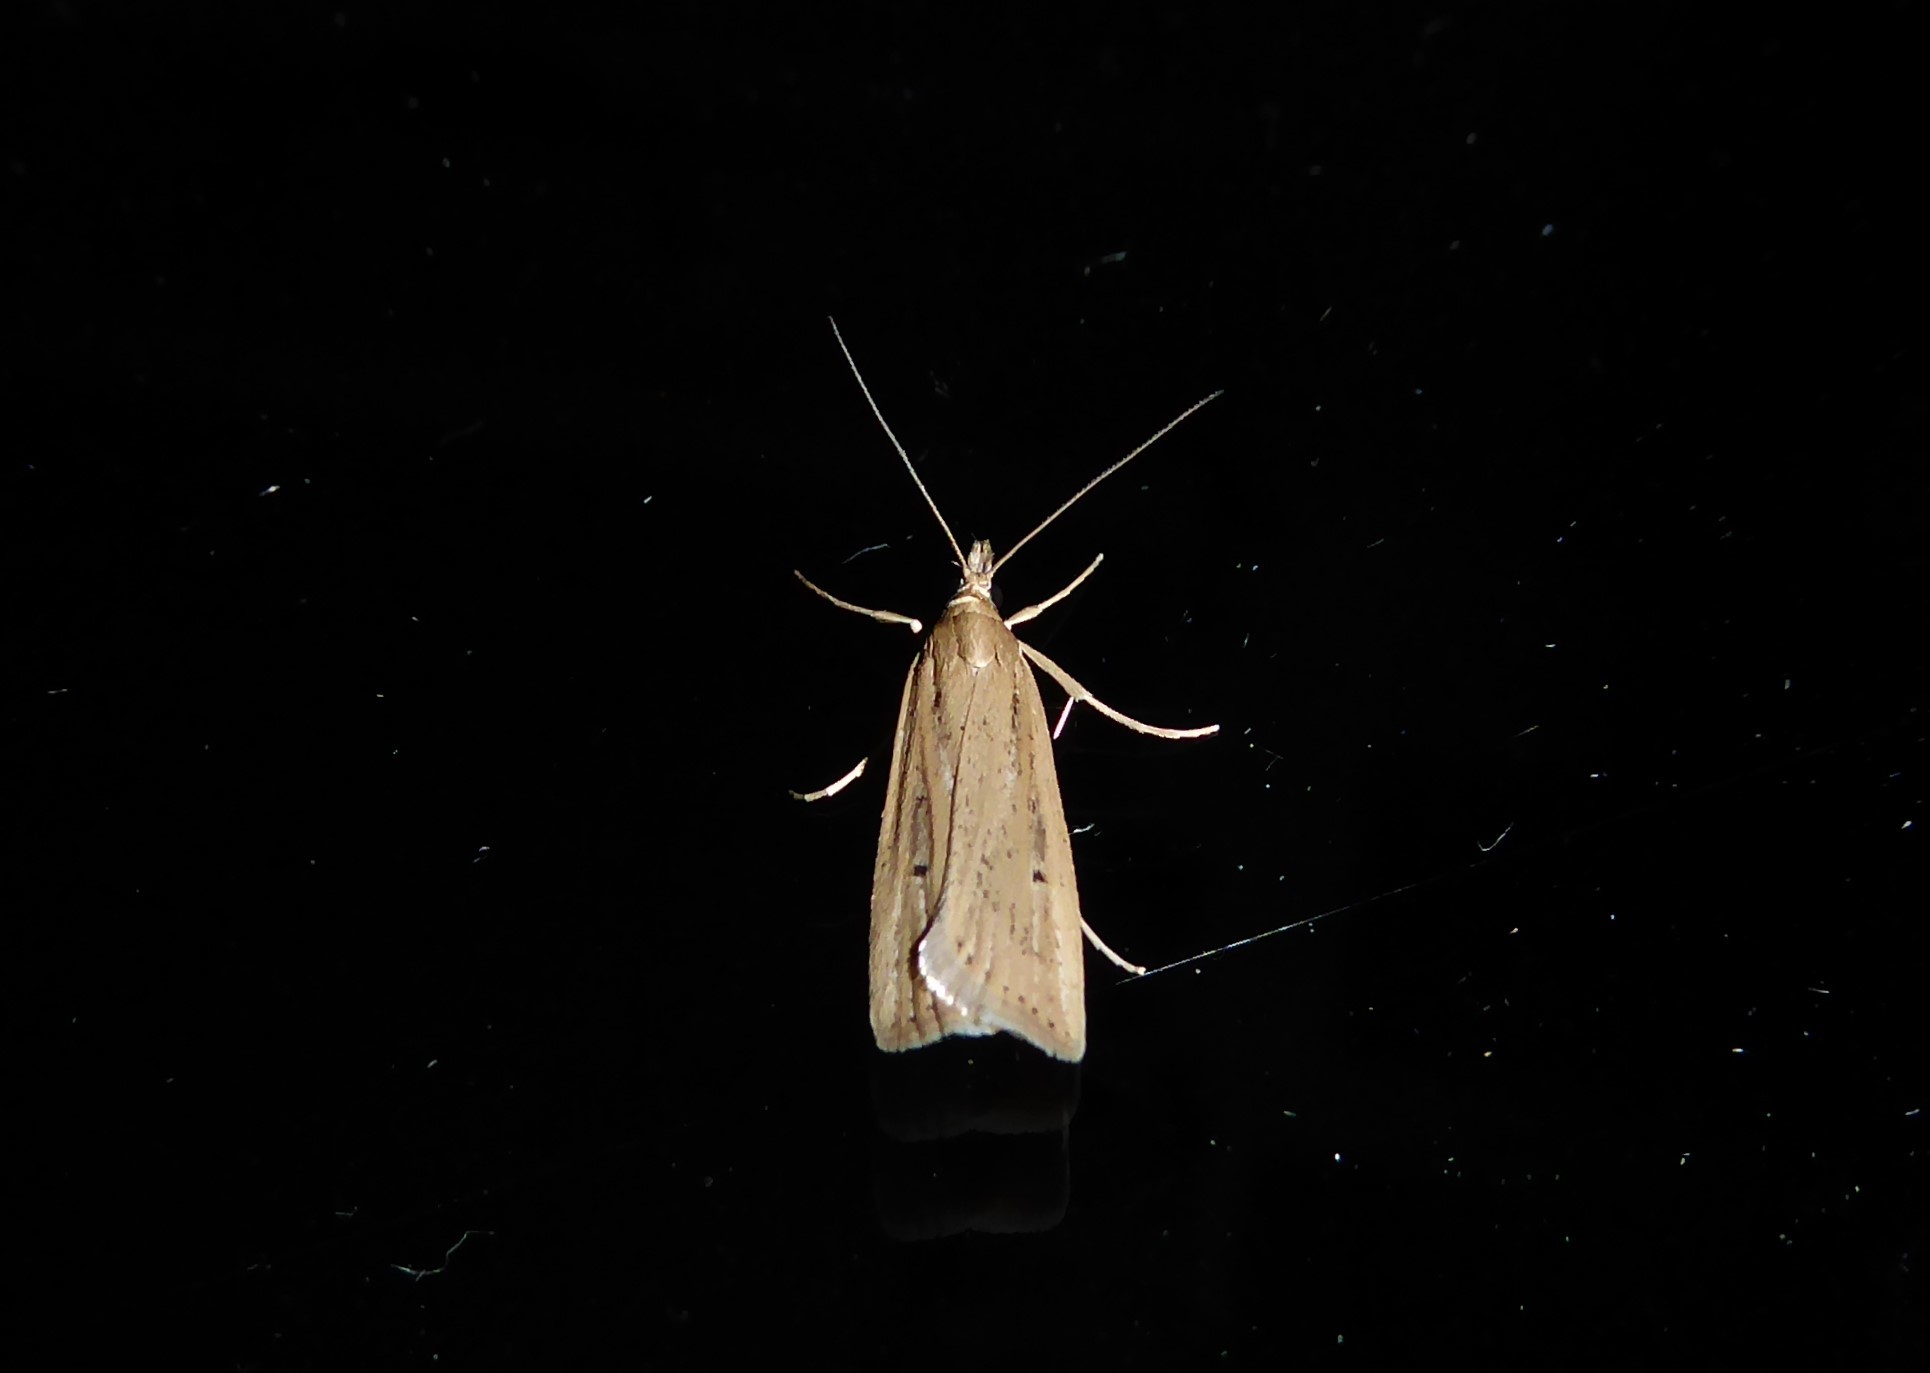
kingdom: Animalia
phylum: Arthropoda
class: Insecta
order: Lepidoptera
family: Crambidae
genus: Eudonia
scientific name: Eudonia sabulosella
